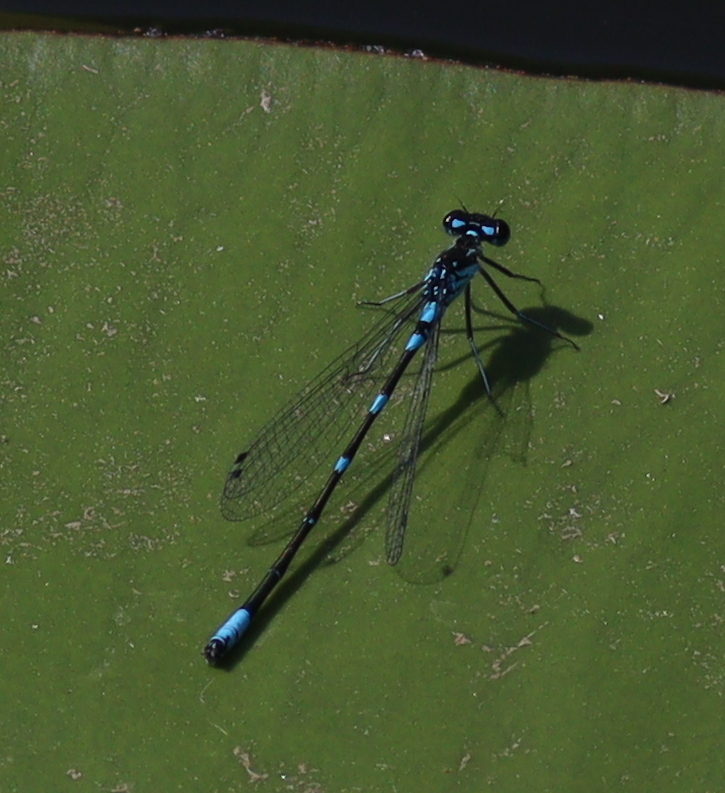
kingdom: Animalia
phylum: Arthropoda
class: Insecta
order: Odonata
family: Coenagrionidae
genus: Coenagrion
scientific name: Coenagrion pulchellum
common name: Variable bluet
